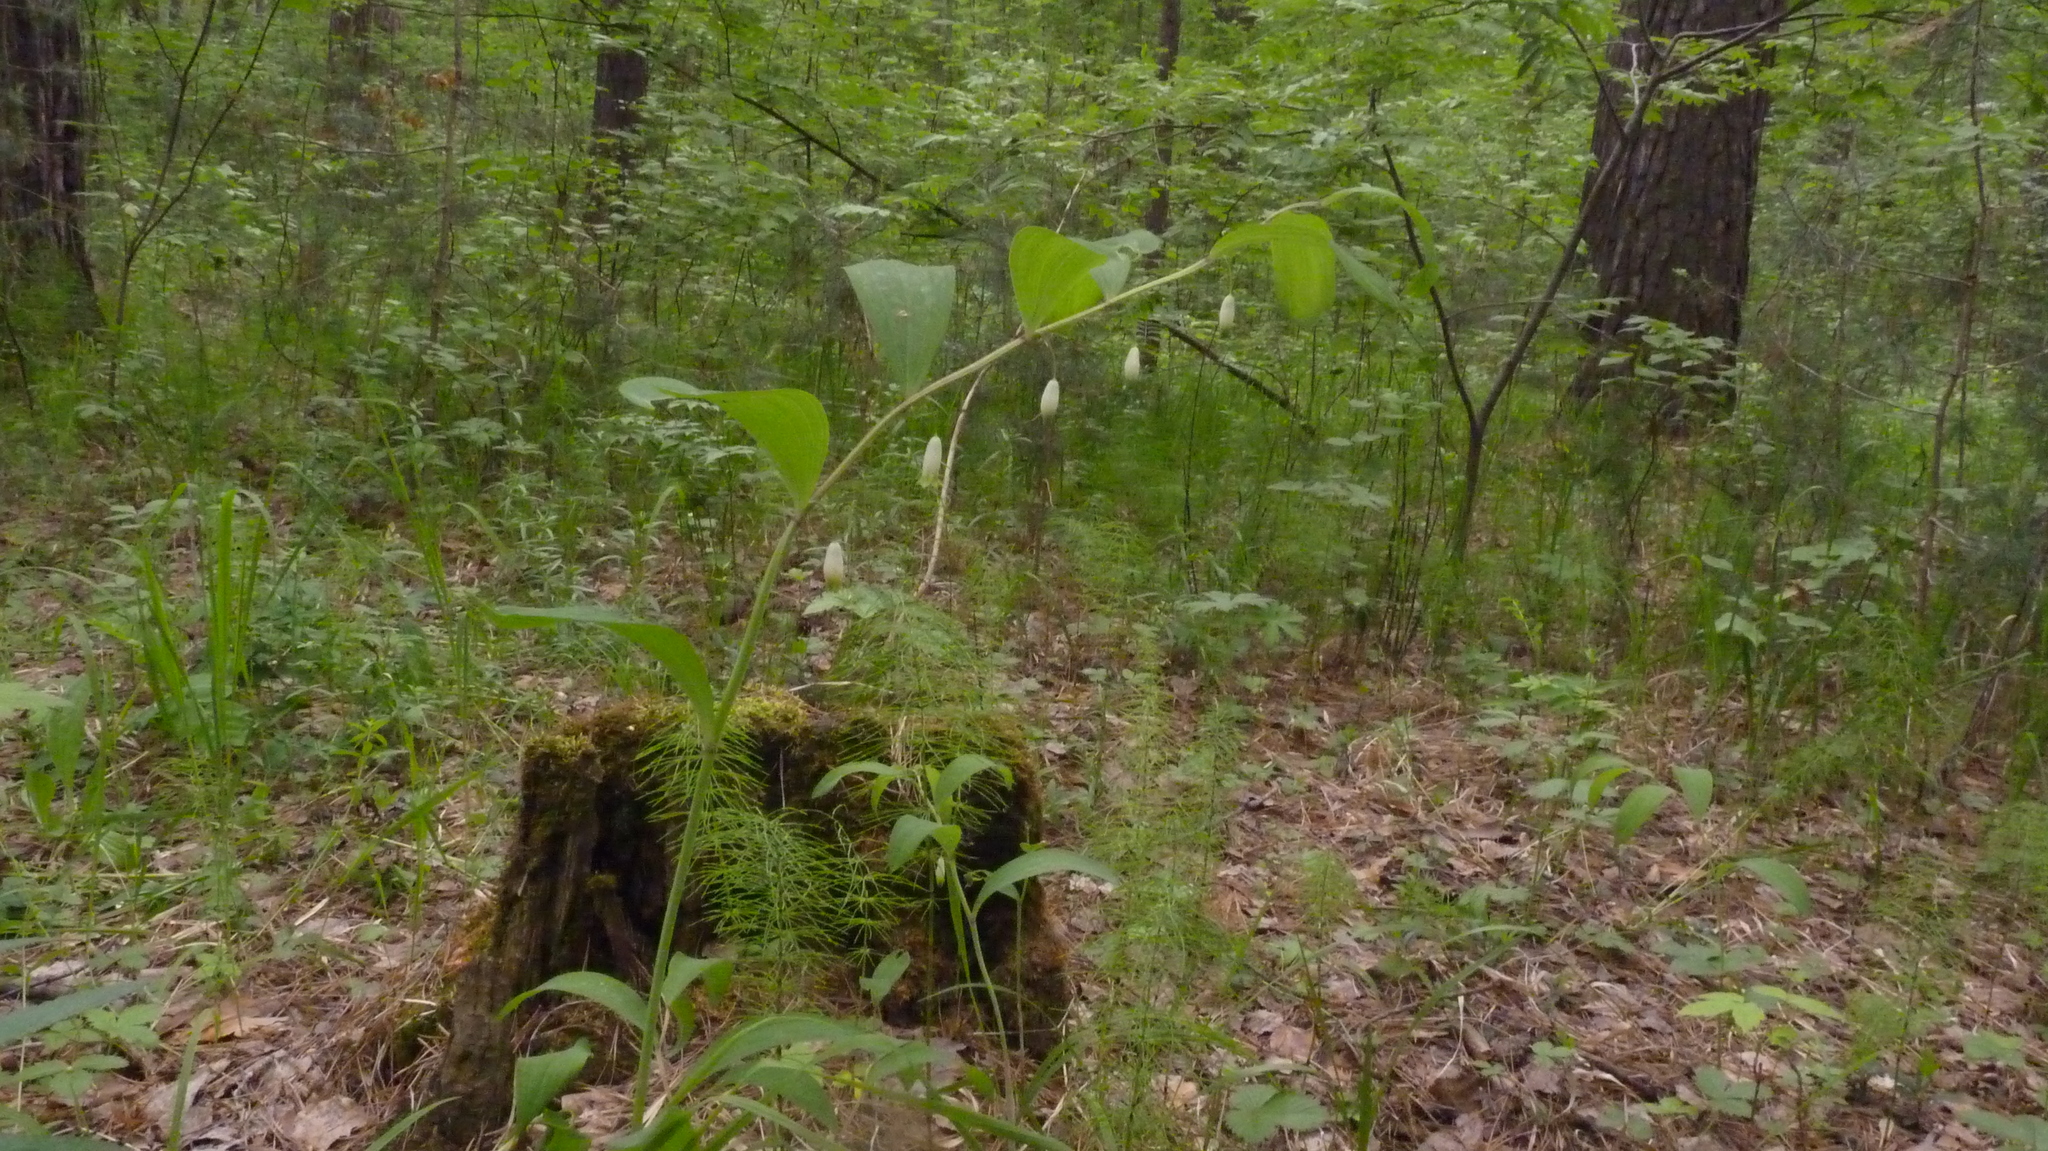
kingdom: Plantae
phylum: Tracheophyta
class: Liliopsida
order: Asparagales
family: Asparagaceae
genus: Polygonatum
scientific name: Polygonatum odoratum
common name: Angular solomon's-seal
